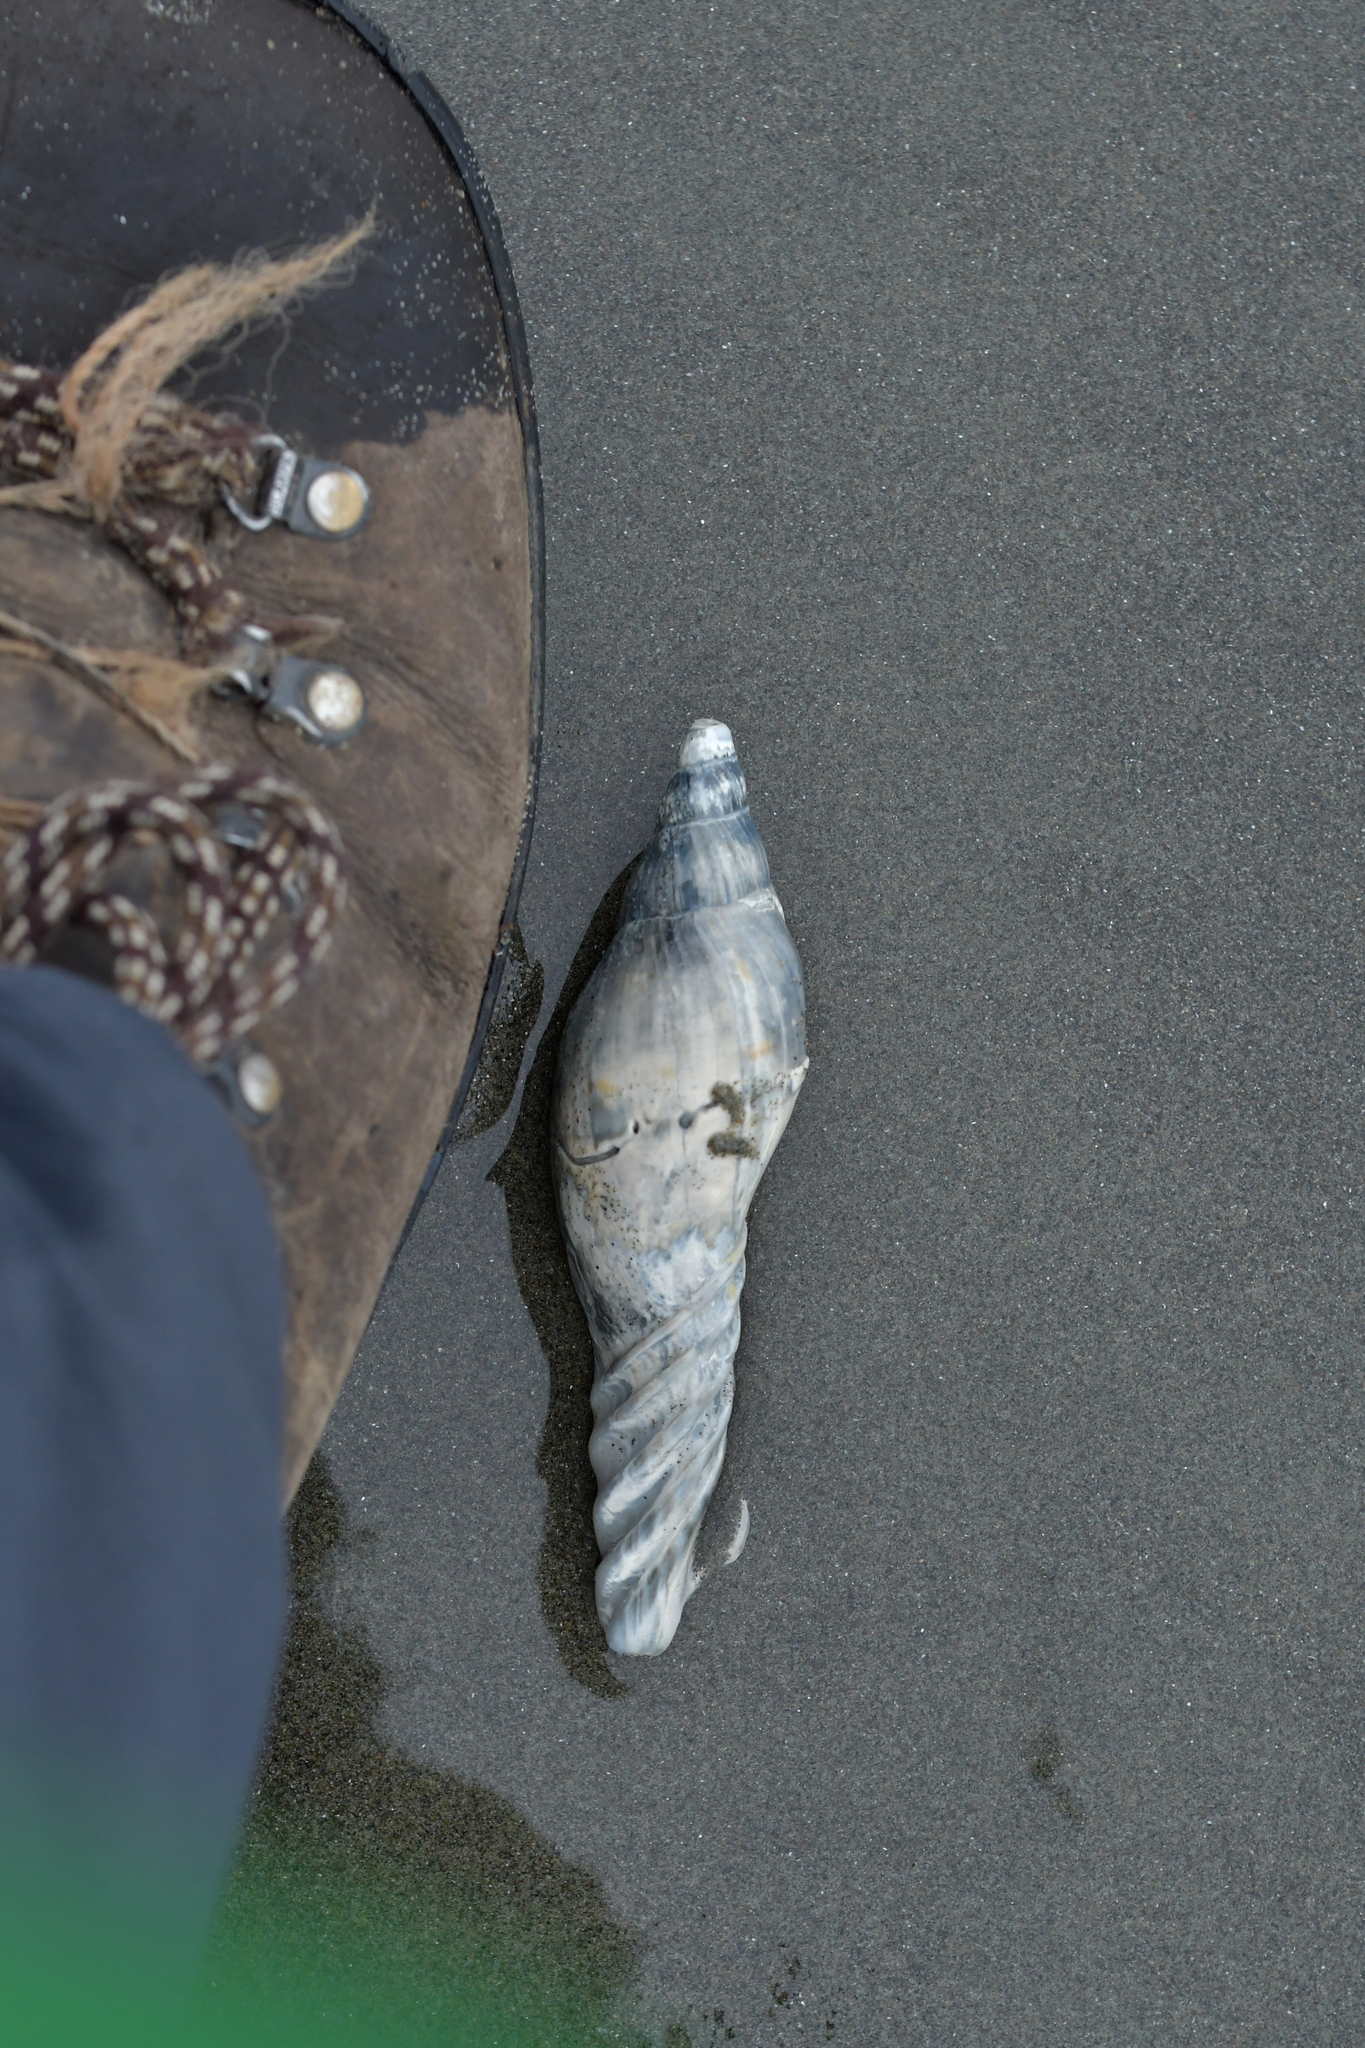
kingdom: Animalia
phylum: Mollusca
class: Gastropoda
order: Neogastropoda
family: Volutidae
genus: Alcithoe
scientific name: Alcithoe arabica
